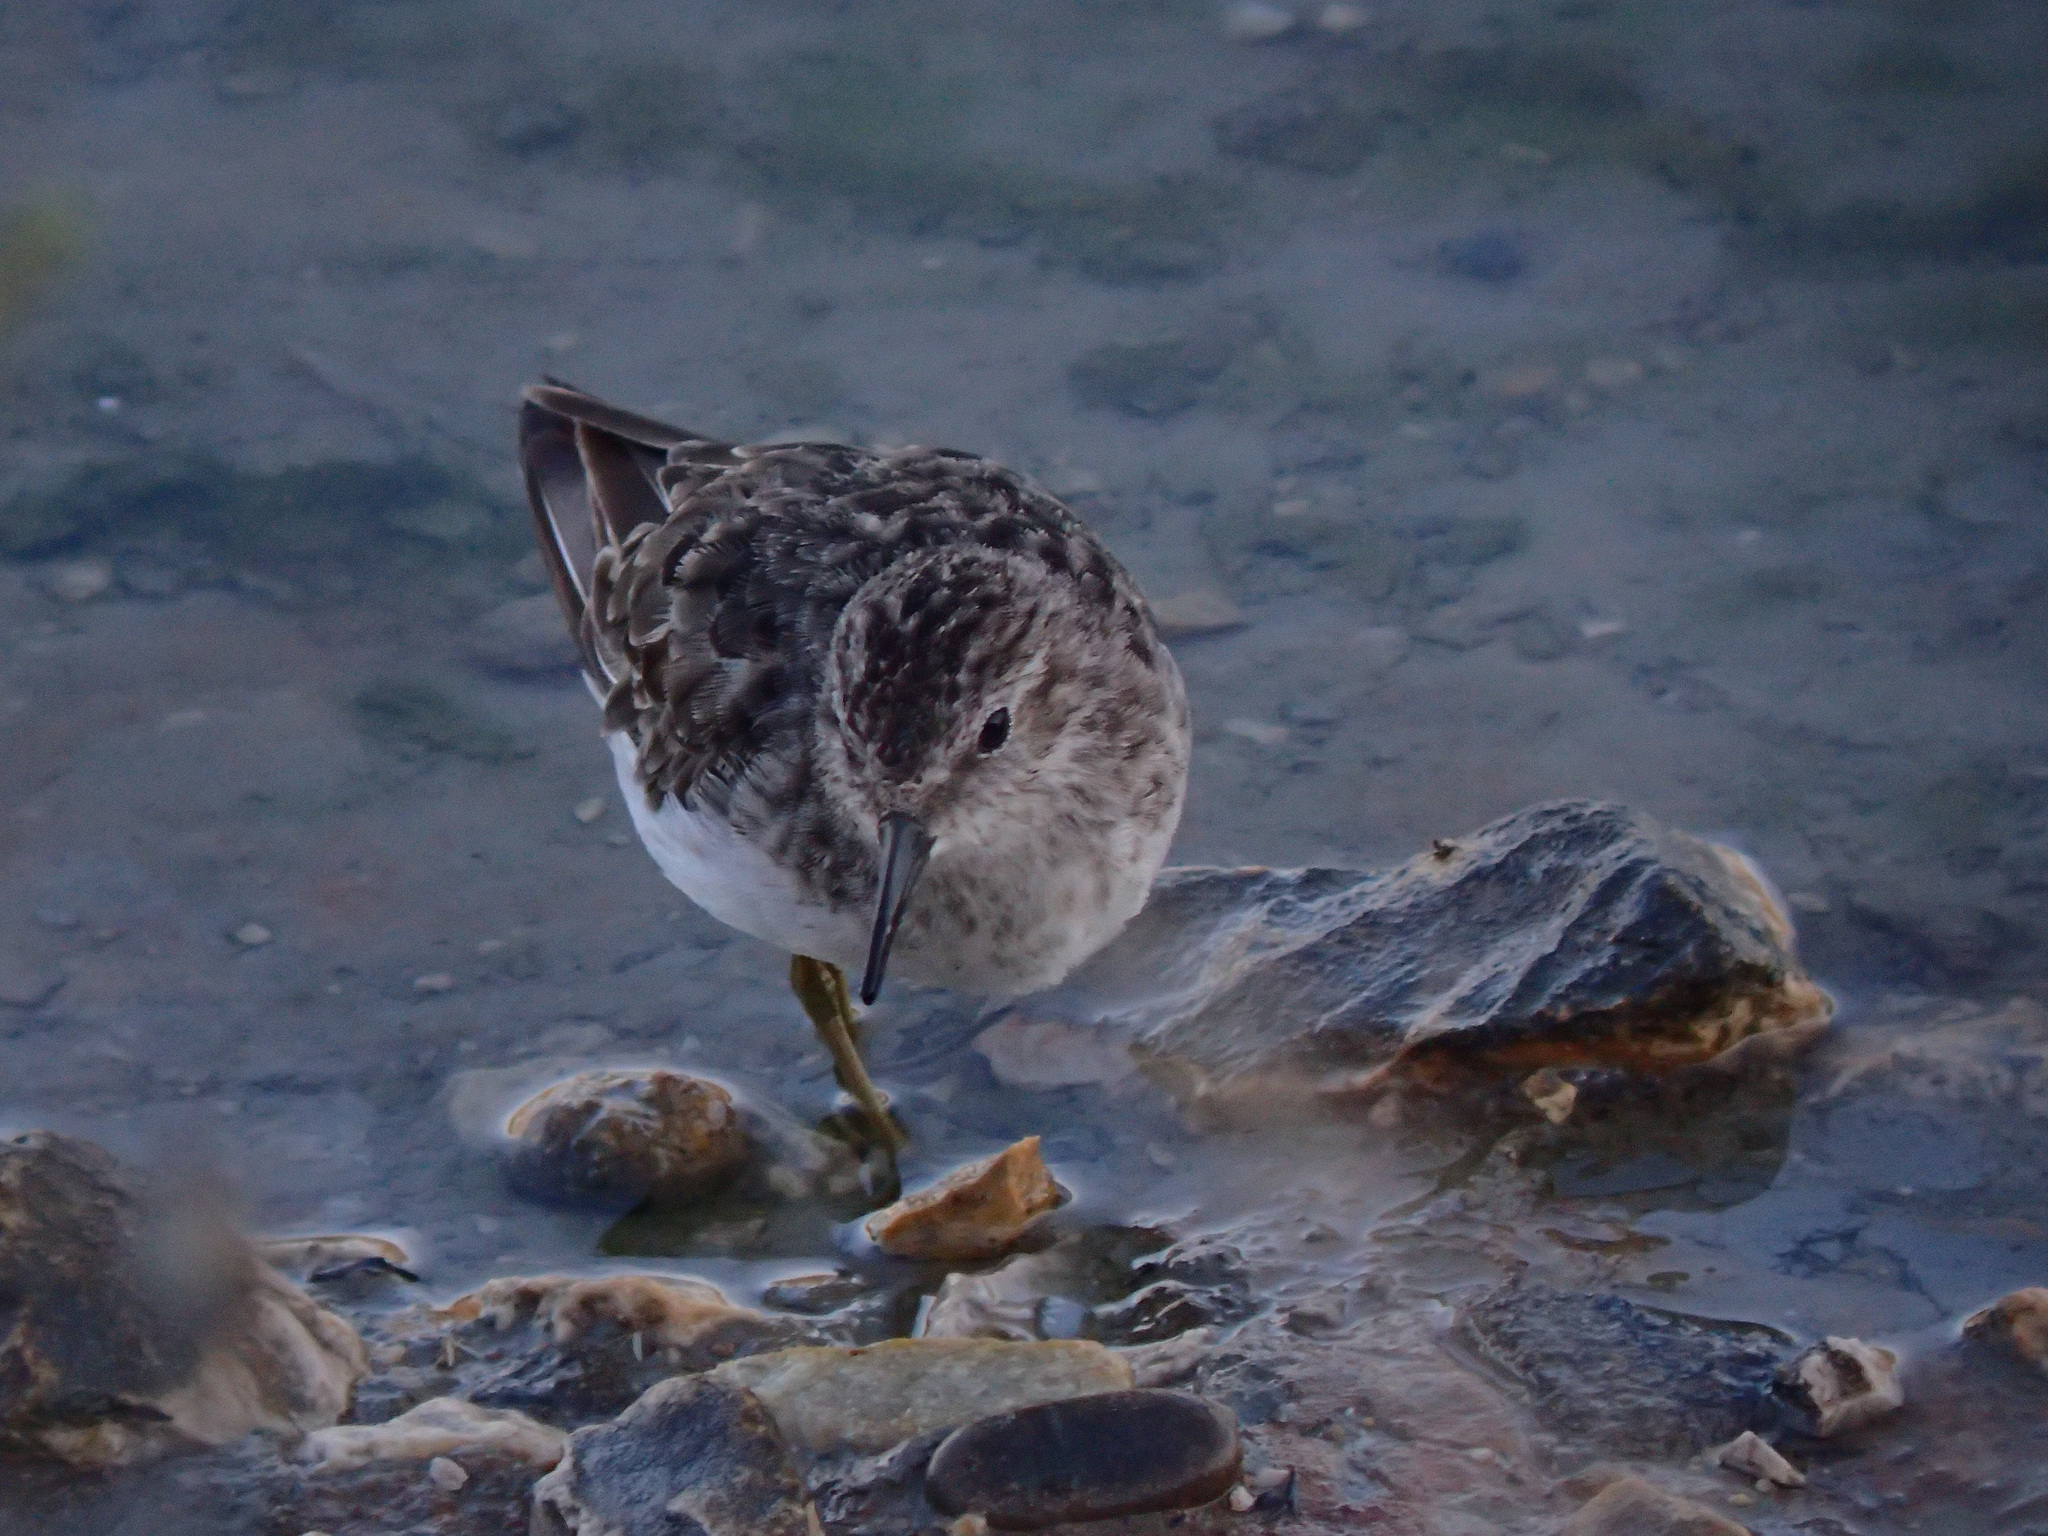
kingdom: Animalia
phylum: Chordata
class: Aves
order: Charadriiformes
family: Scolopacidae
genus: Calidris
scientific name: Calidris minutilla
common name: Least sandpiper
